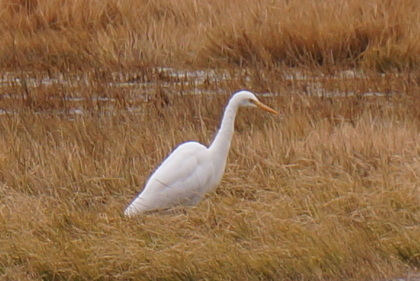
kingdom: Animalia
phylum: Chordata
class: Aves
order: Pelecaniformes
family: Ardeidae
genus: Egretta
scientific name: Egretta intermedia
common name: Intermediate egret
